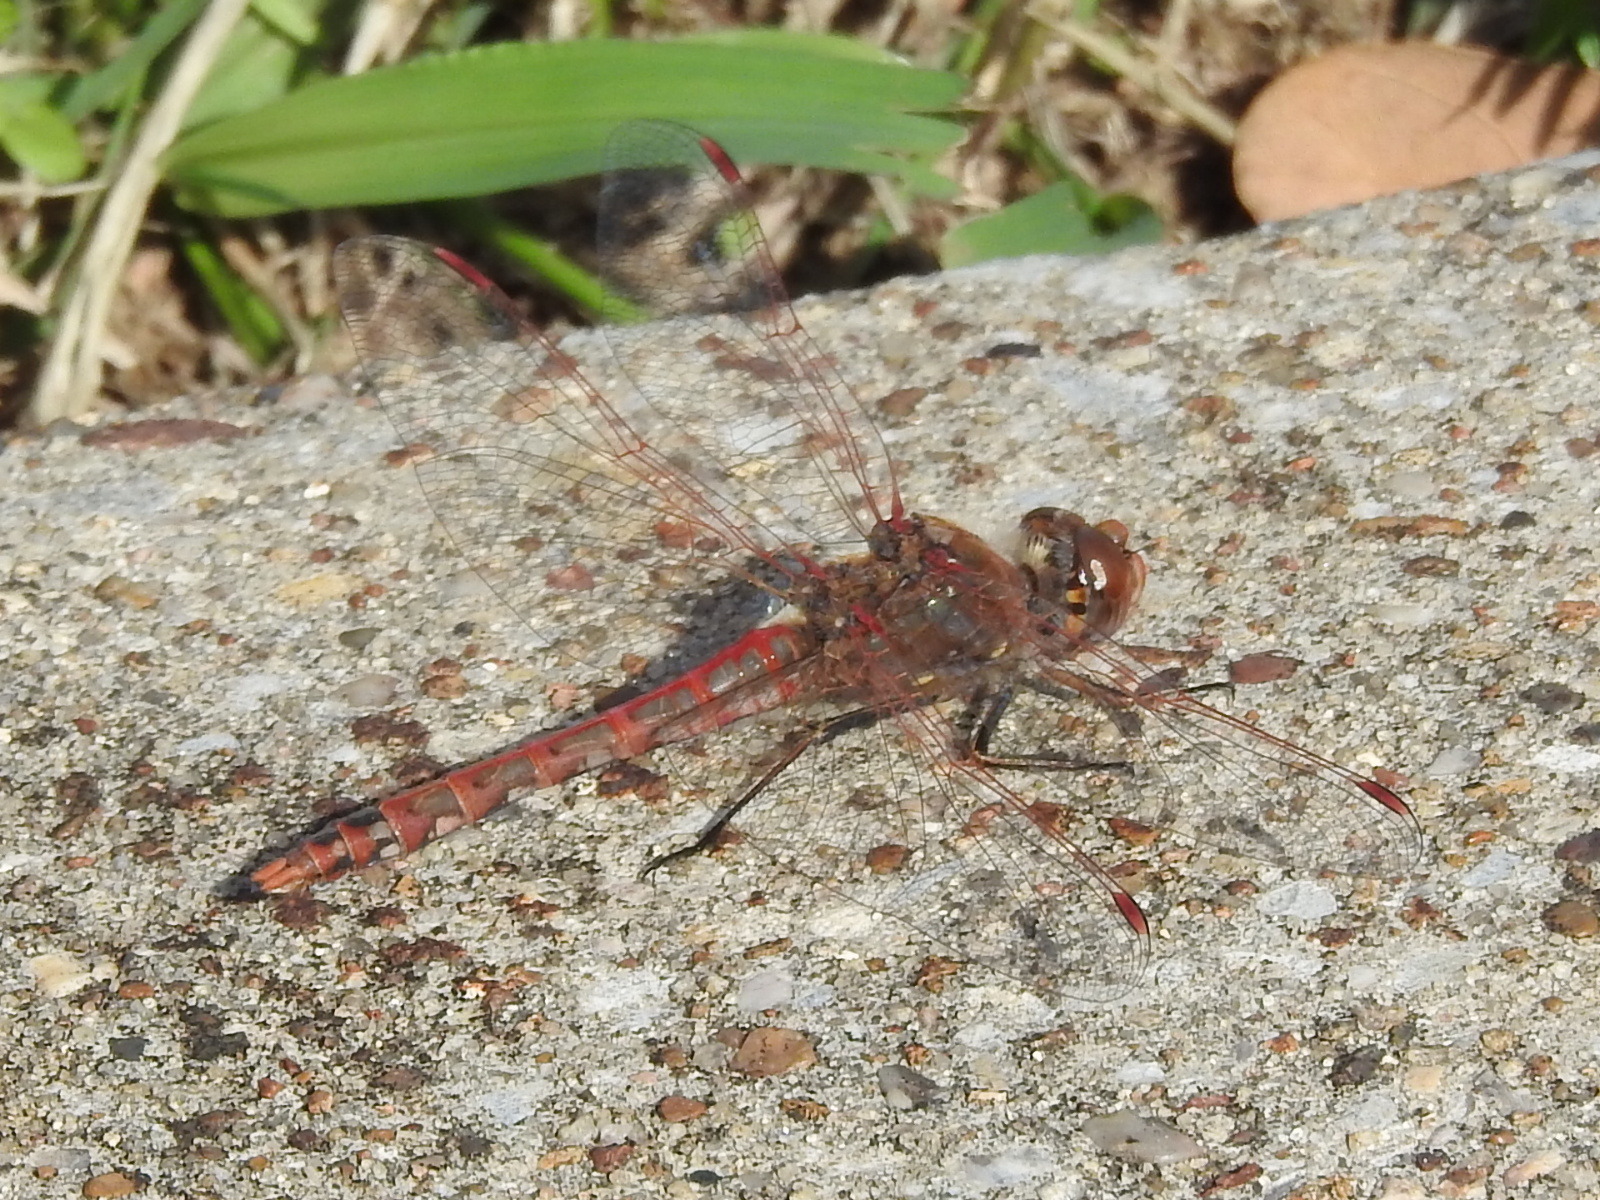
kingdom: Animalia
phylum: Arthropoda
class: Insecta
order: Odonata
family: Libellulidae
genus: Sympetrum
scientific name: Sympetrum corruptum
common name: Variegated meadowhawk
